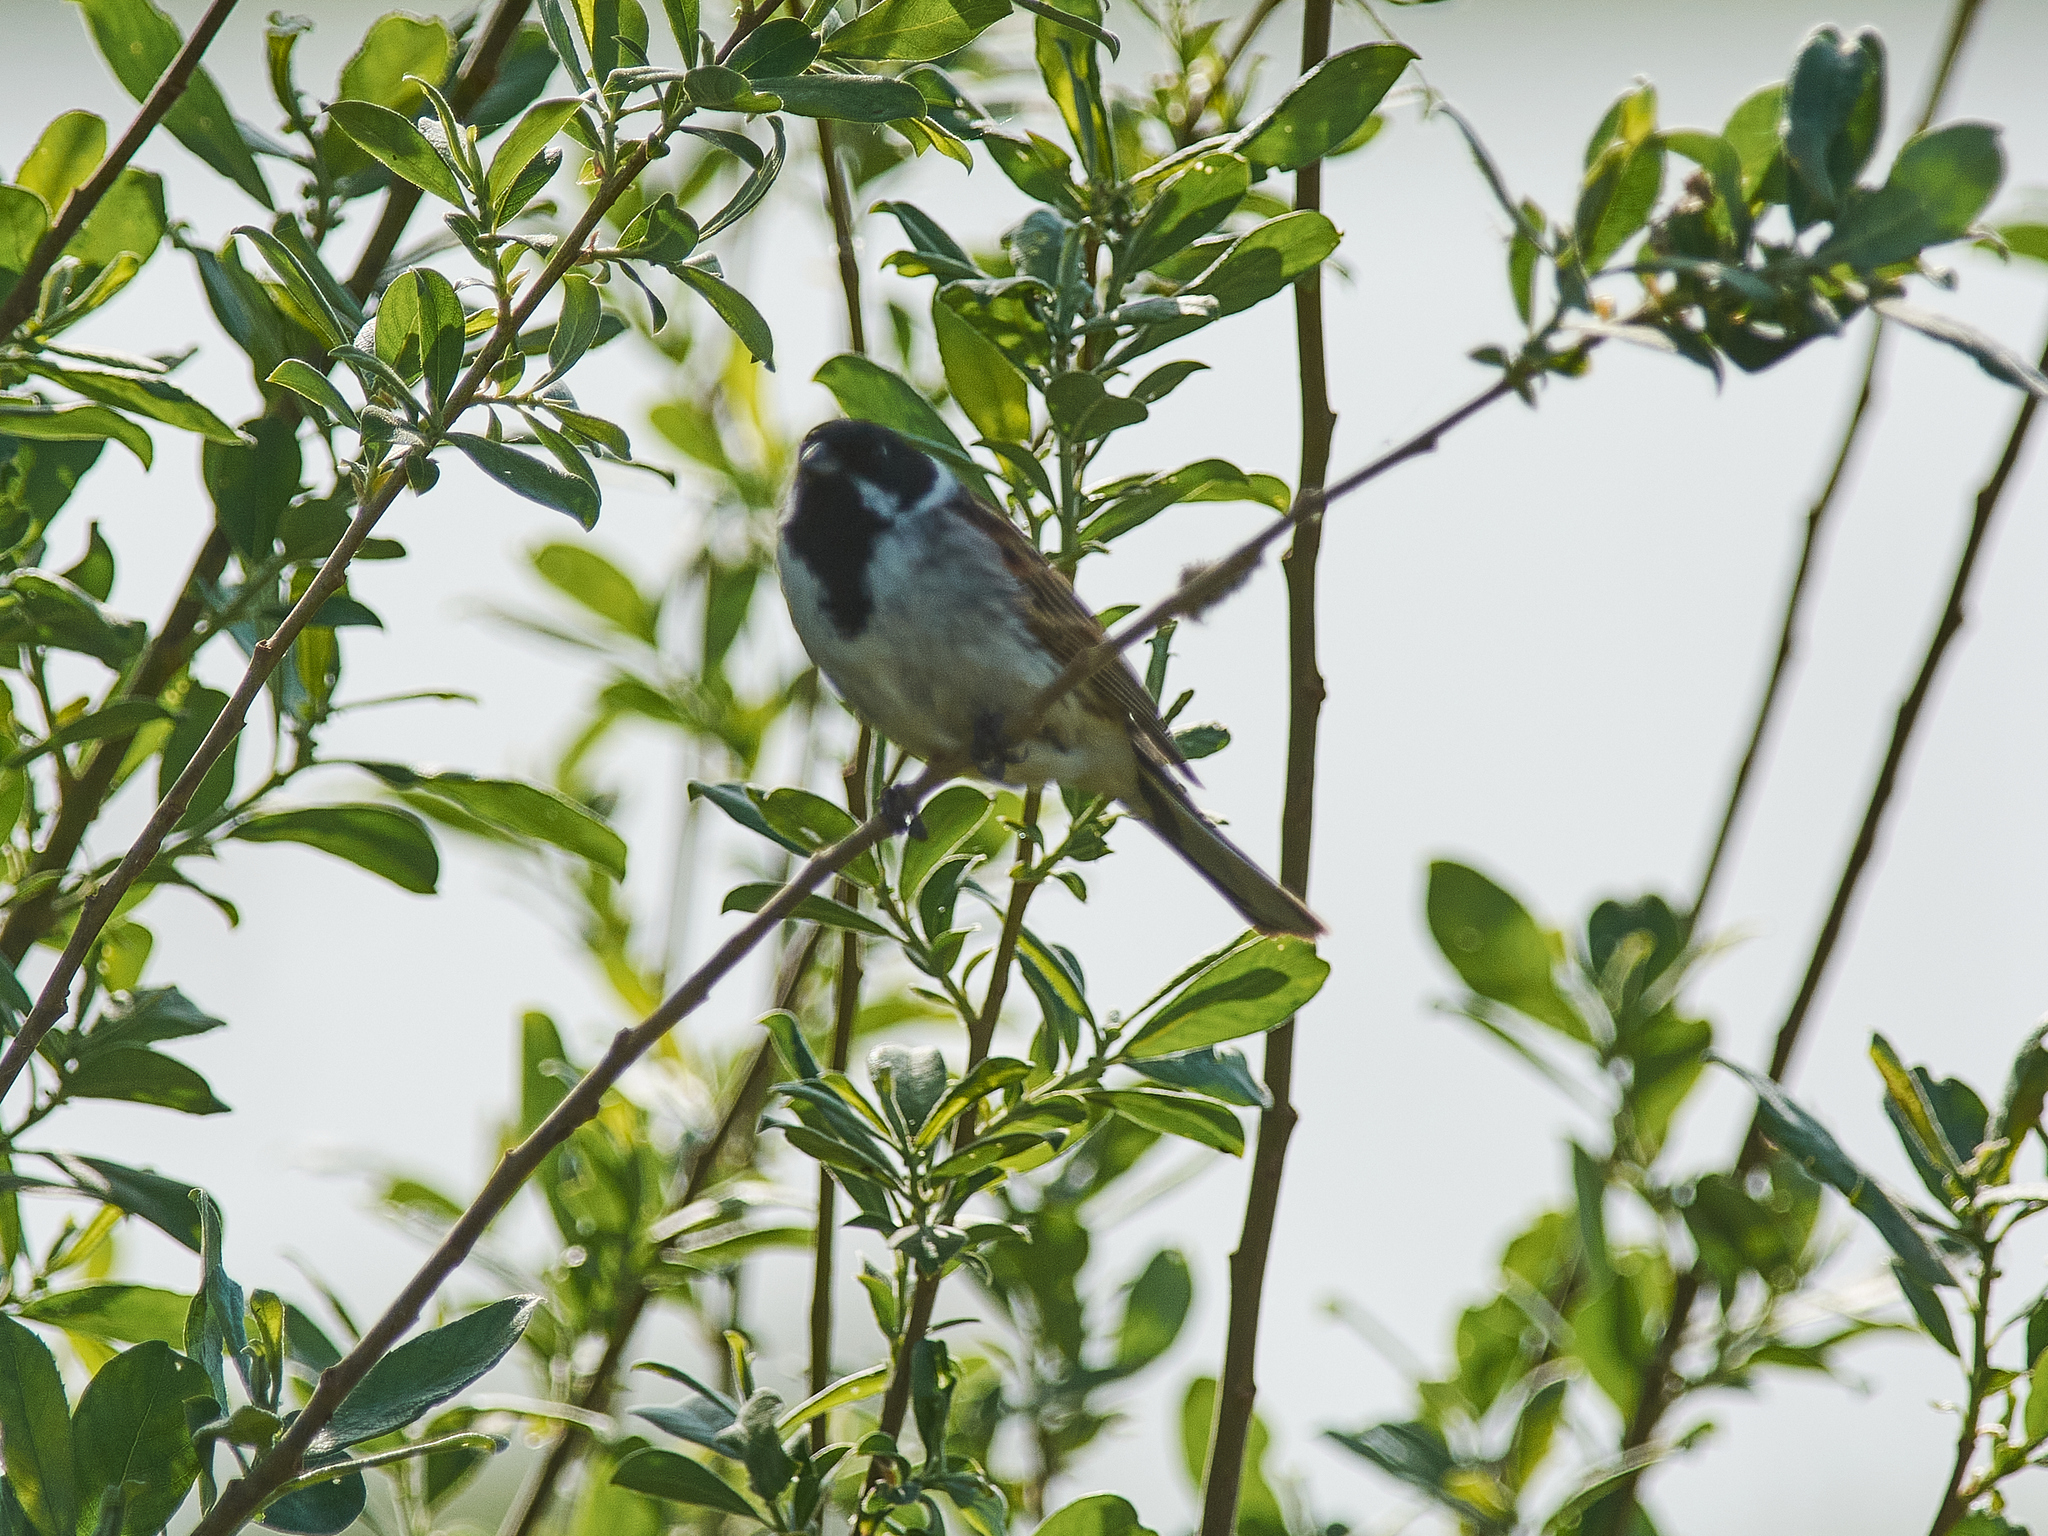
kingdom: Animalia
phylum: Chordata
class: Aves
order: Passeriformes
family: Emberizidae
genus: Emberiza
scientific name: Emberiza schoeniclus
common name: Reed bunting
